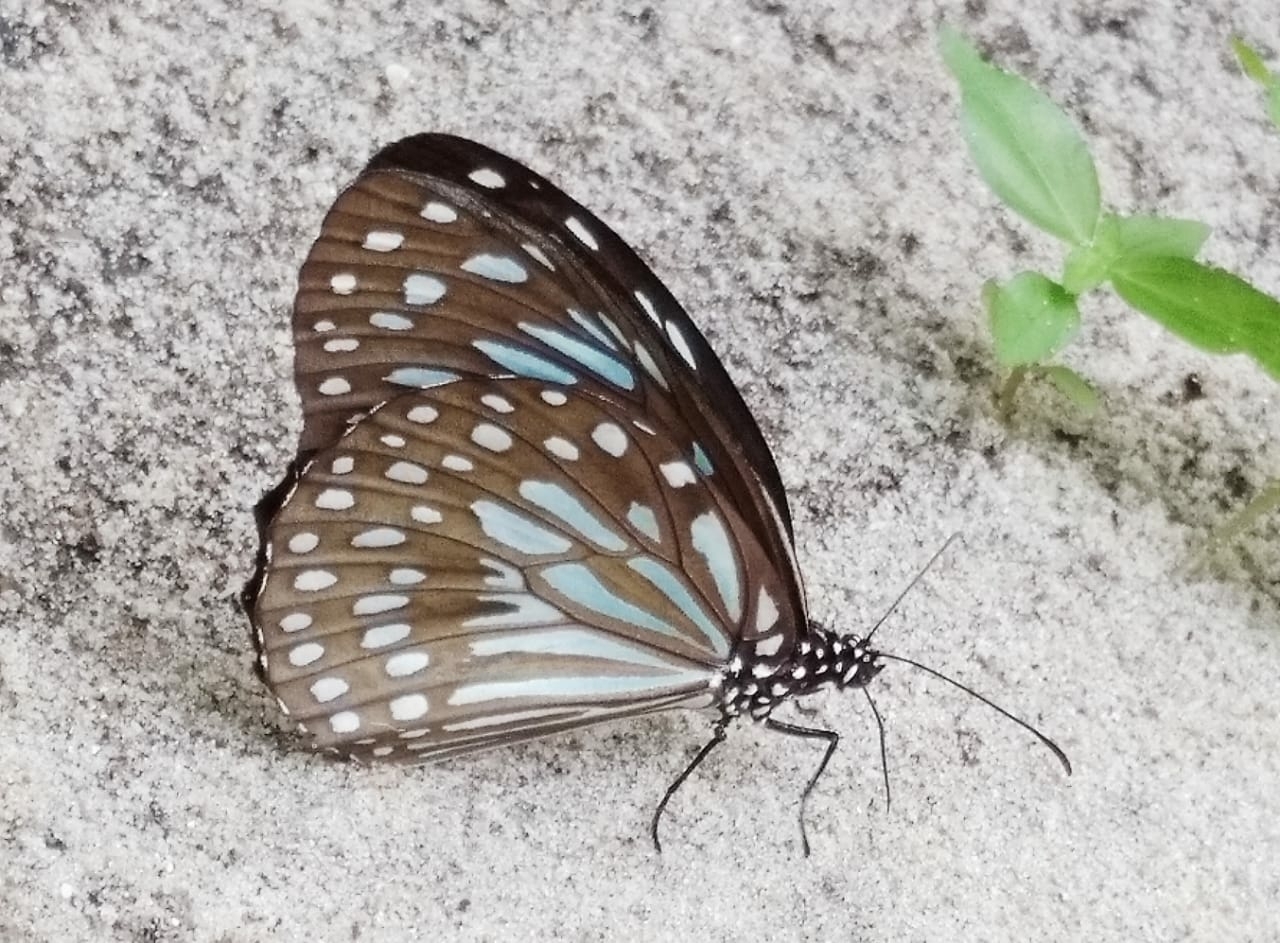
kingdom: Animalia
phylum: Arthropoda
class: Insecta
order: Lepidoptera
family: Nymphalidae
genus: Tirumala
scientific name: Tirumala septentrionis
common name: Dark blue tiger butterfly
